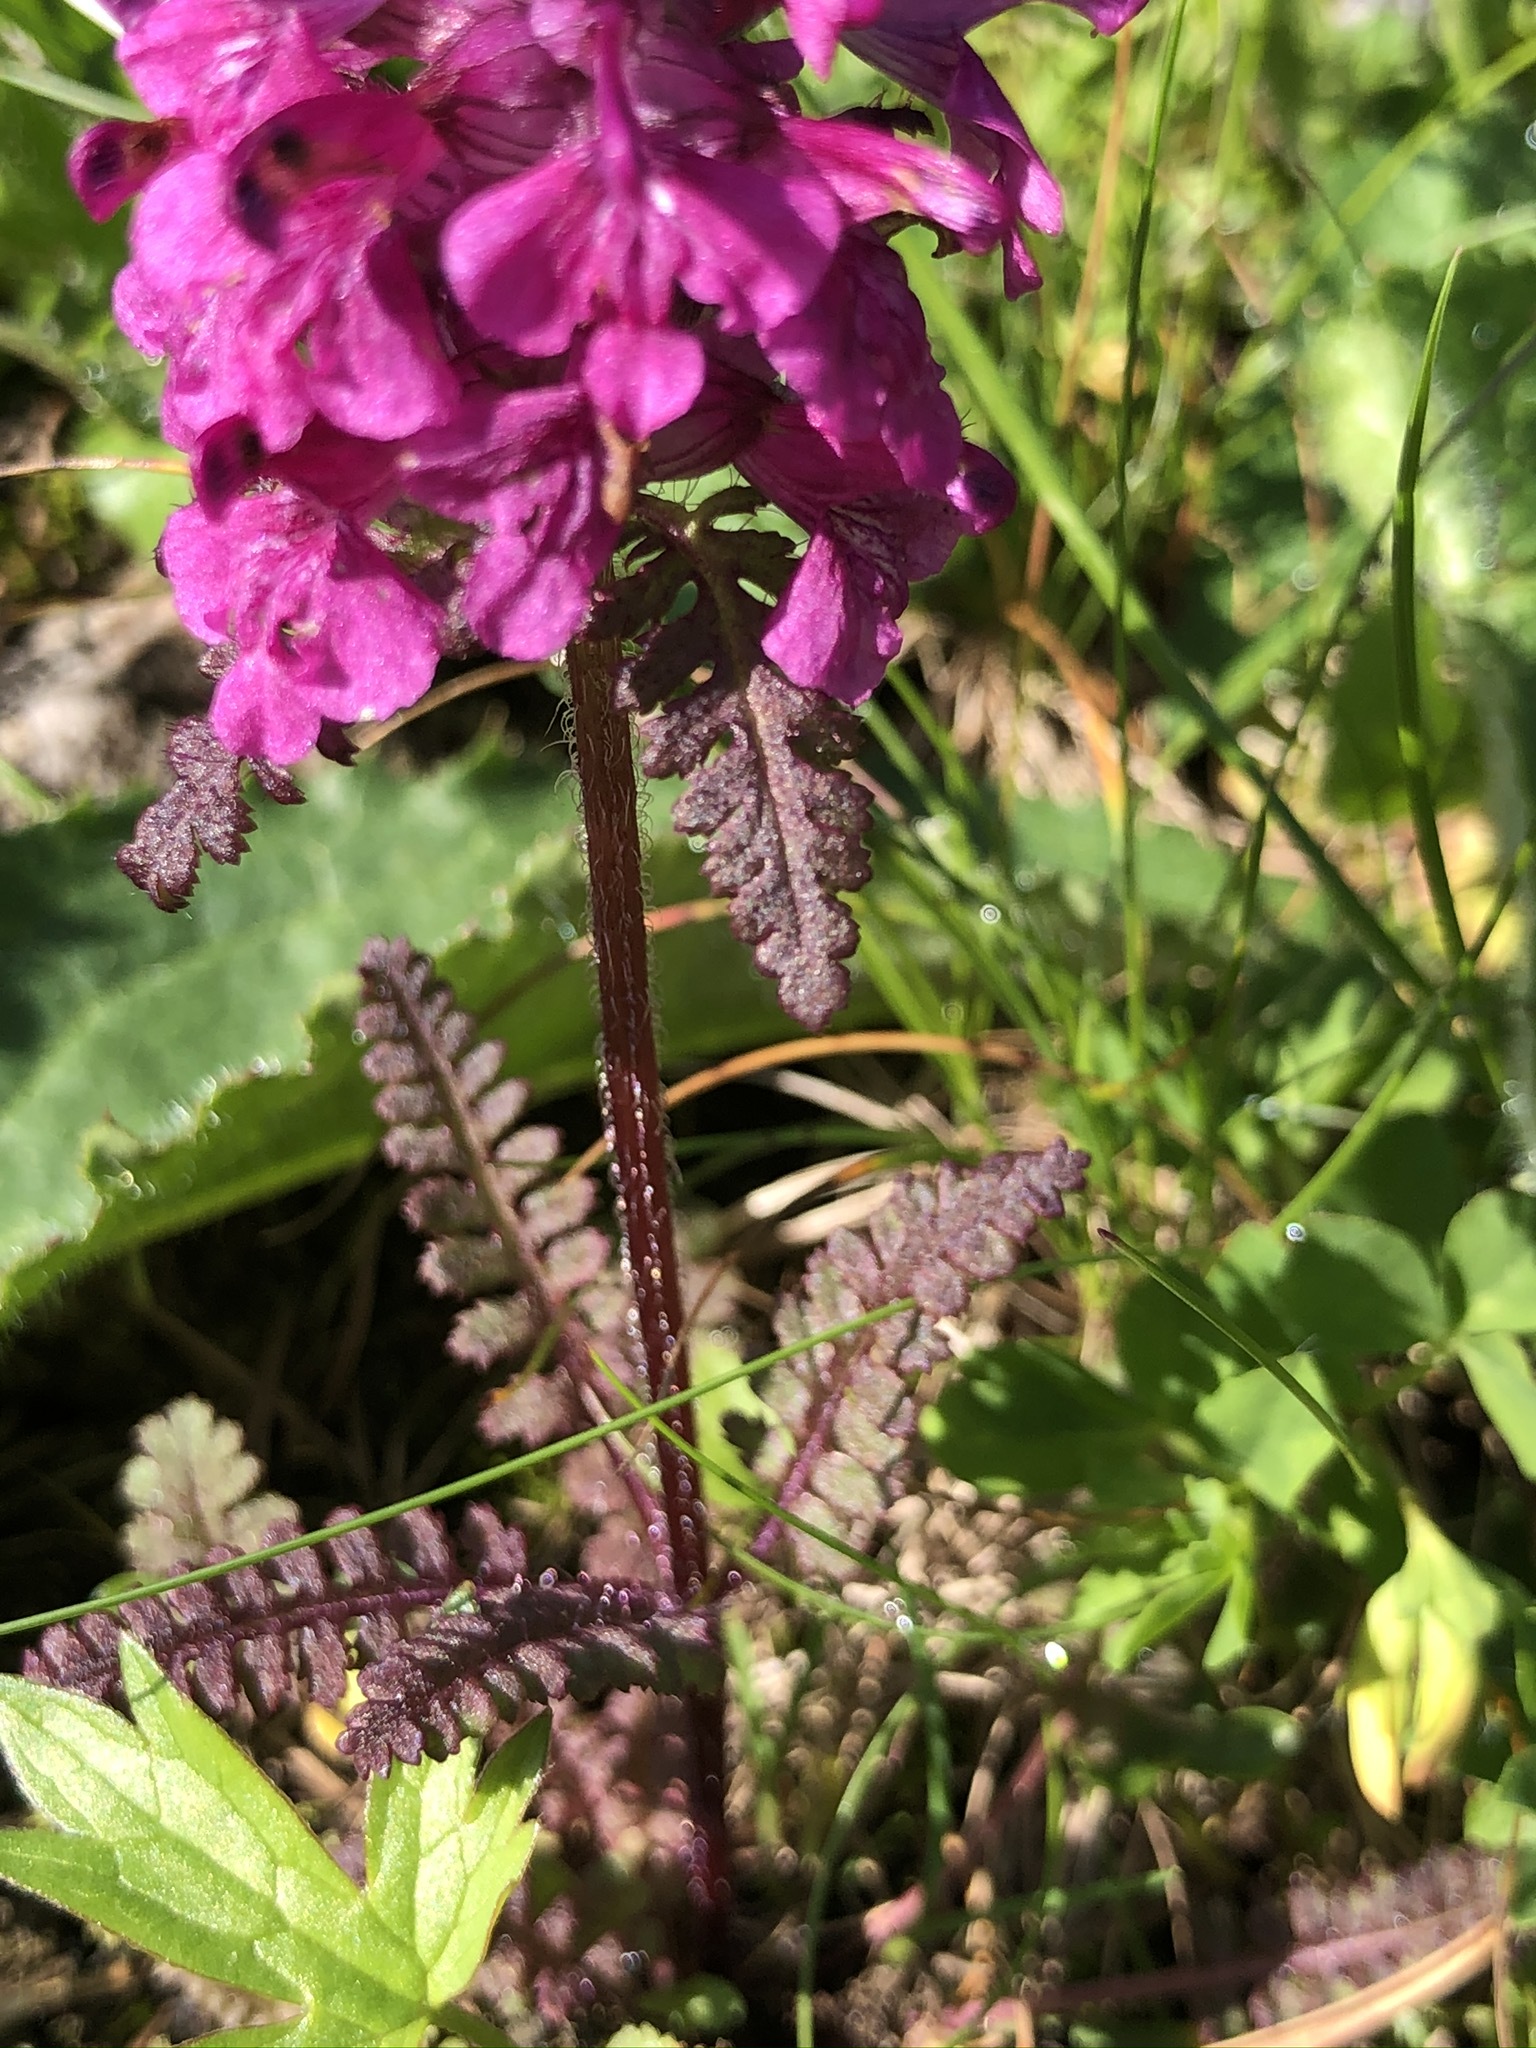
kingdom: Plantae
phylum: Tracheophyta
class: Magnoliopsida
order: Lamiales
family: Orobanchaceae
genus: Pedicularis
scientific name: Pedicularis verticillata
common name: Whorled lousewort
